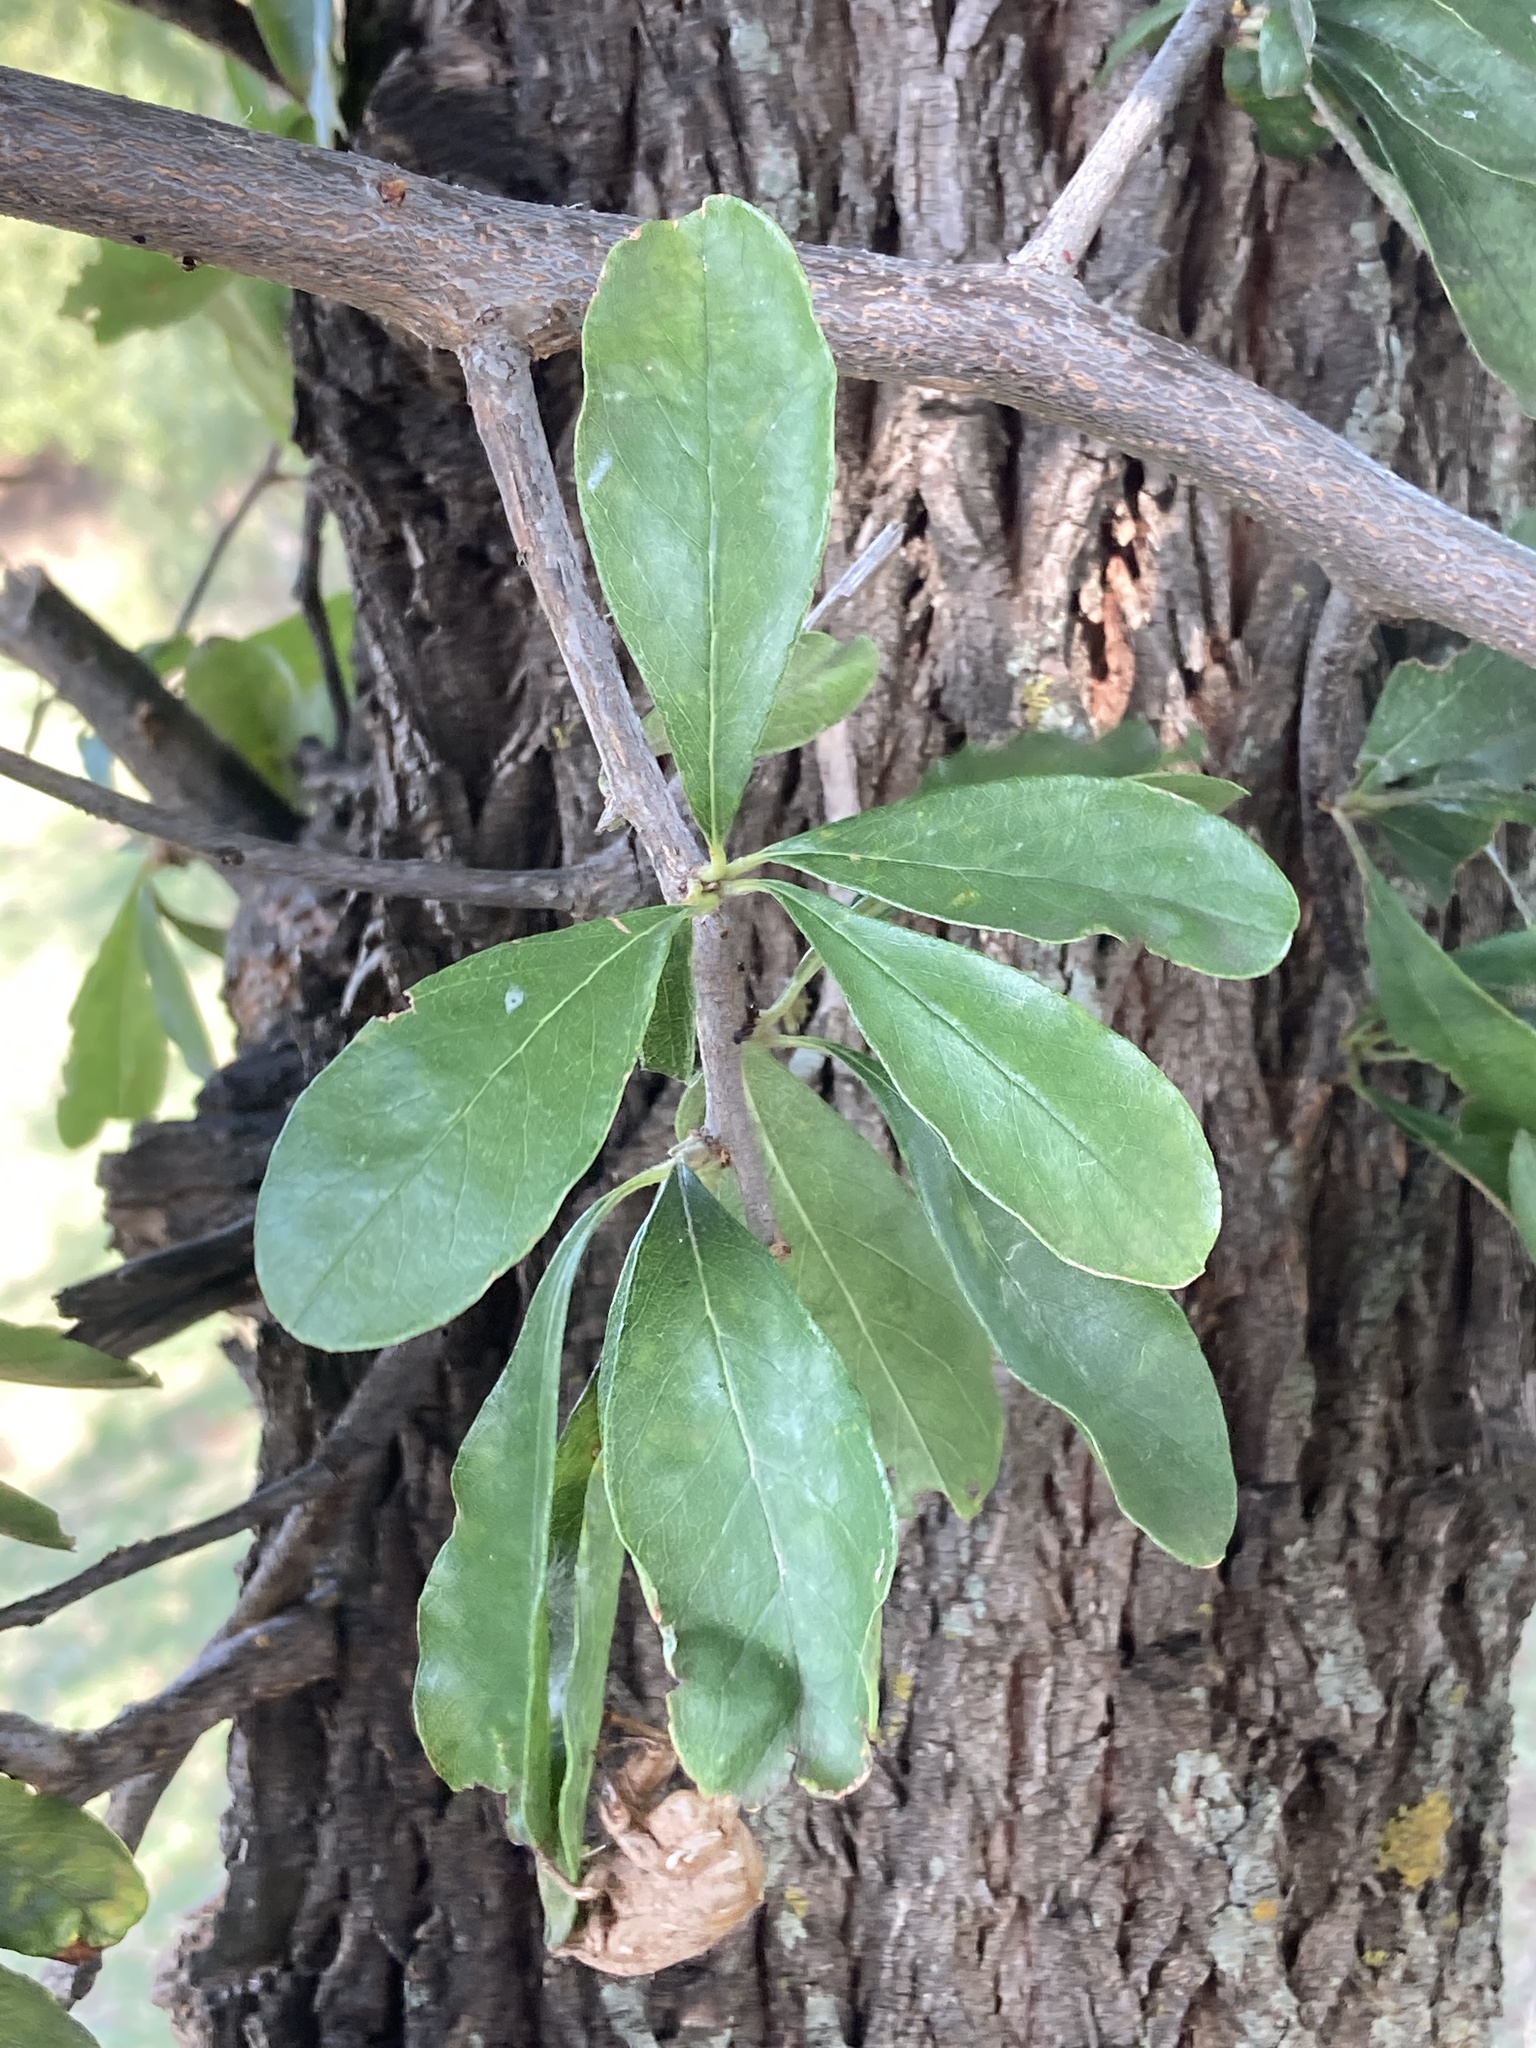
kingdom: Plantae
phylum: Tracheophyta
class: Magnoliopsida
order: Ericales
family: Sapotaceae
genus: Sideroxylon
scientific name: Sideroxylon lanuginosum
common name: Chittamwood
